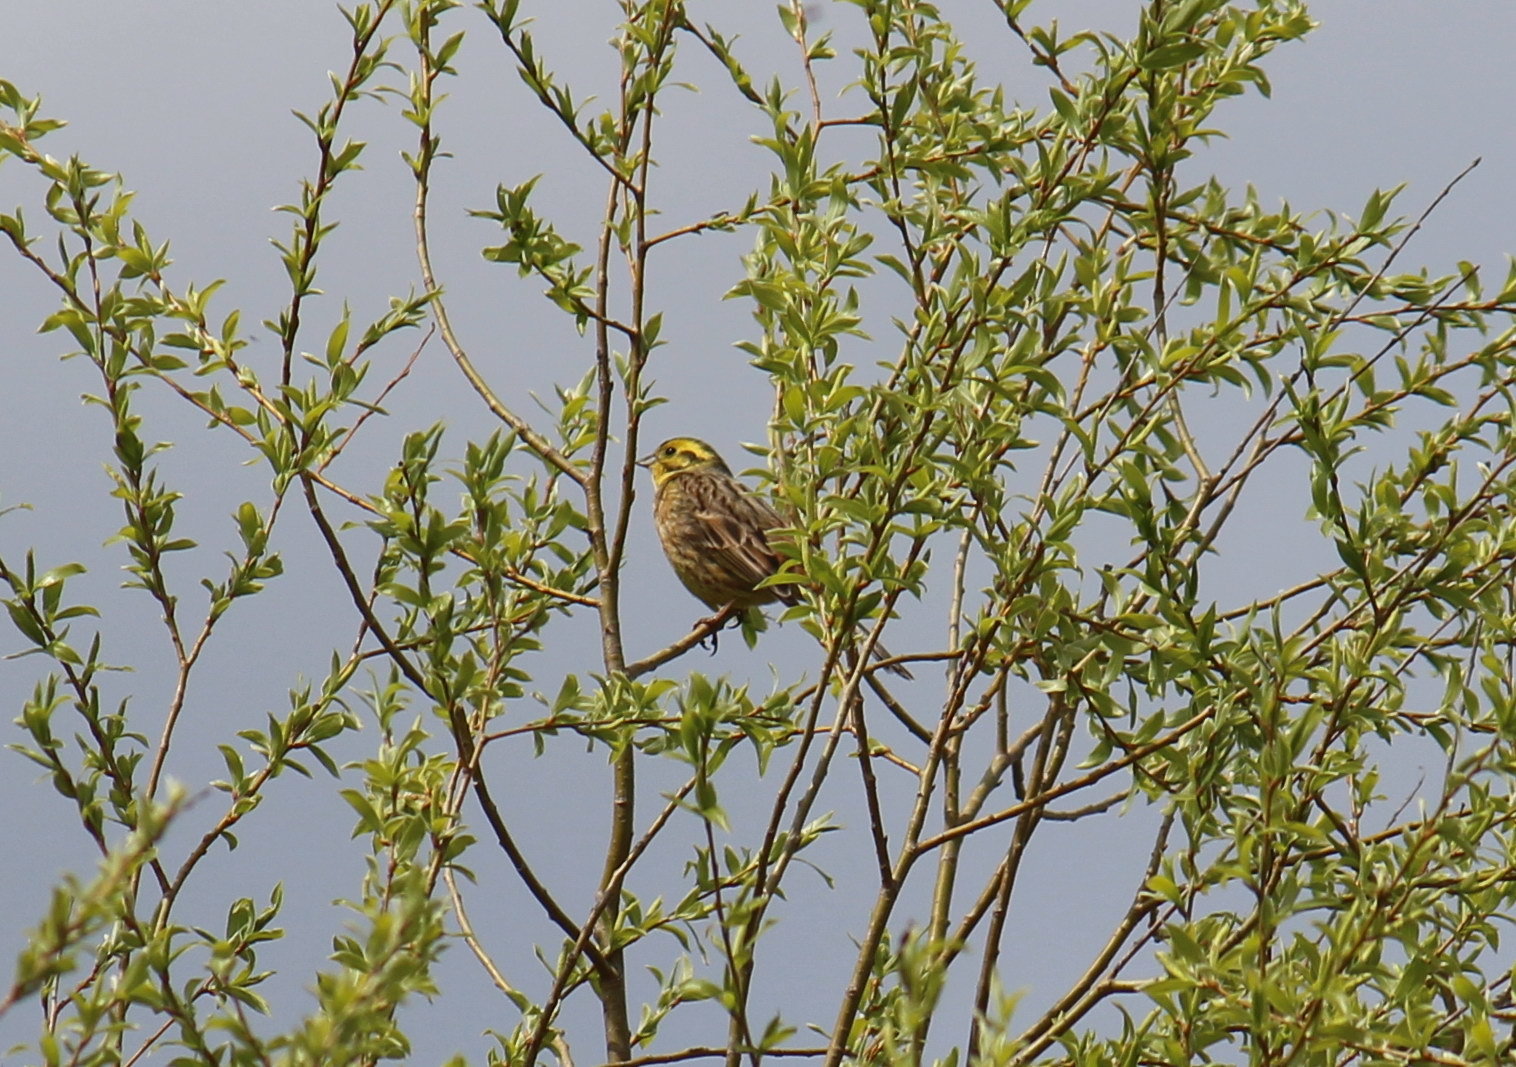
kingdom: Animalia
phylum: Chordata
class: Aves
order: Passeriformes
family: Emberizidae
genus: Emberiza
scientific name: Emberiza citrinella
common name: Yellowhammer
